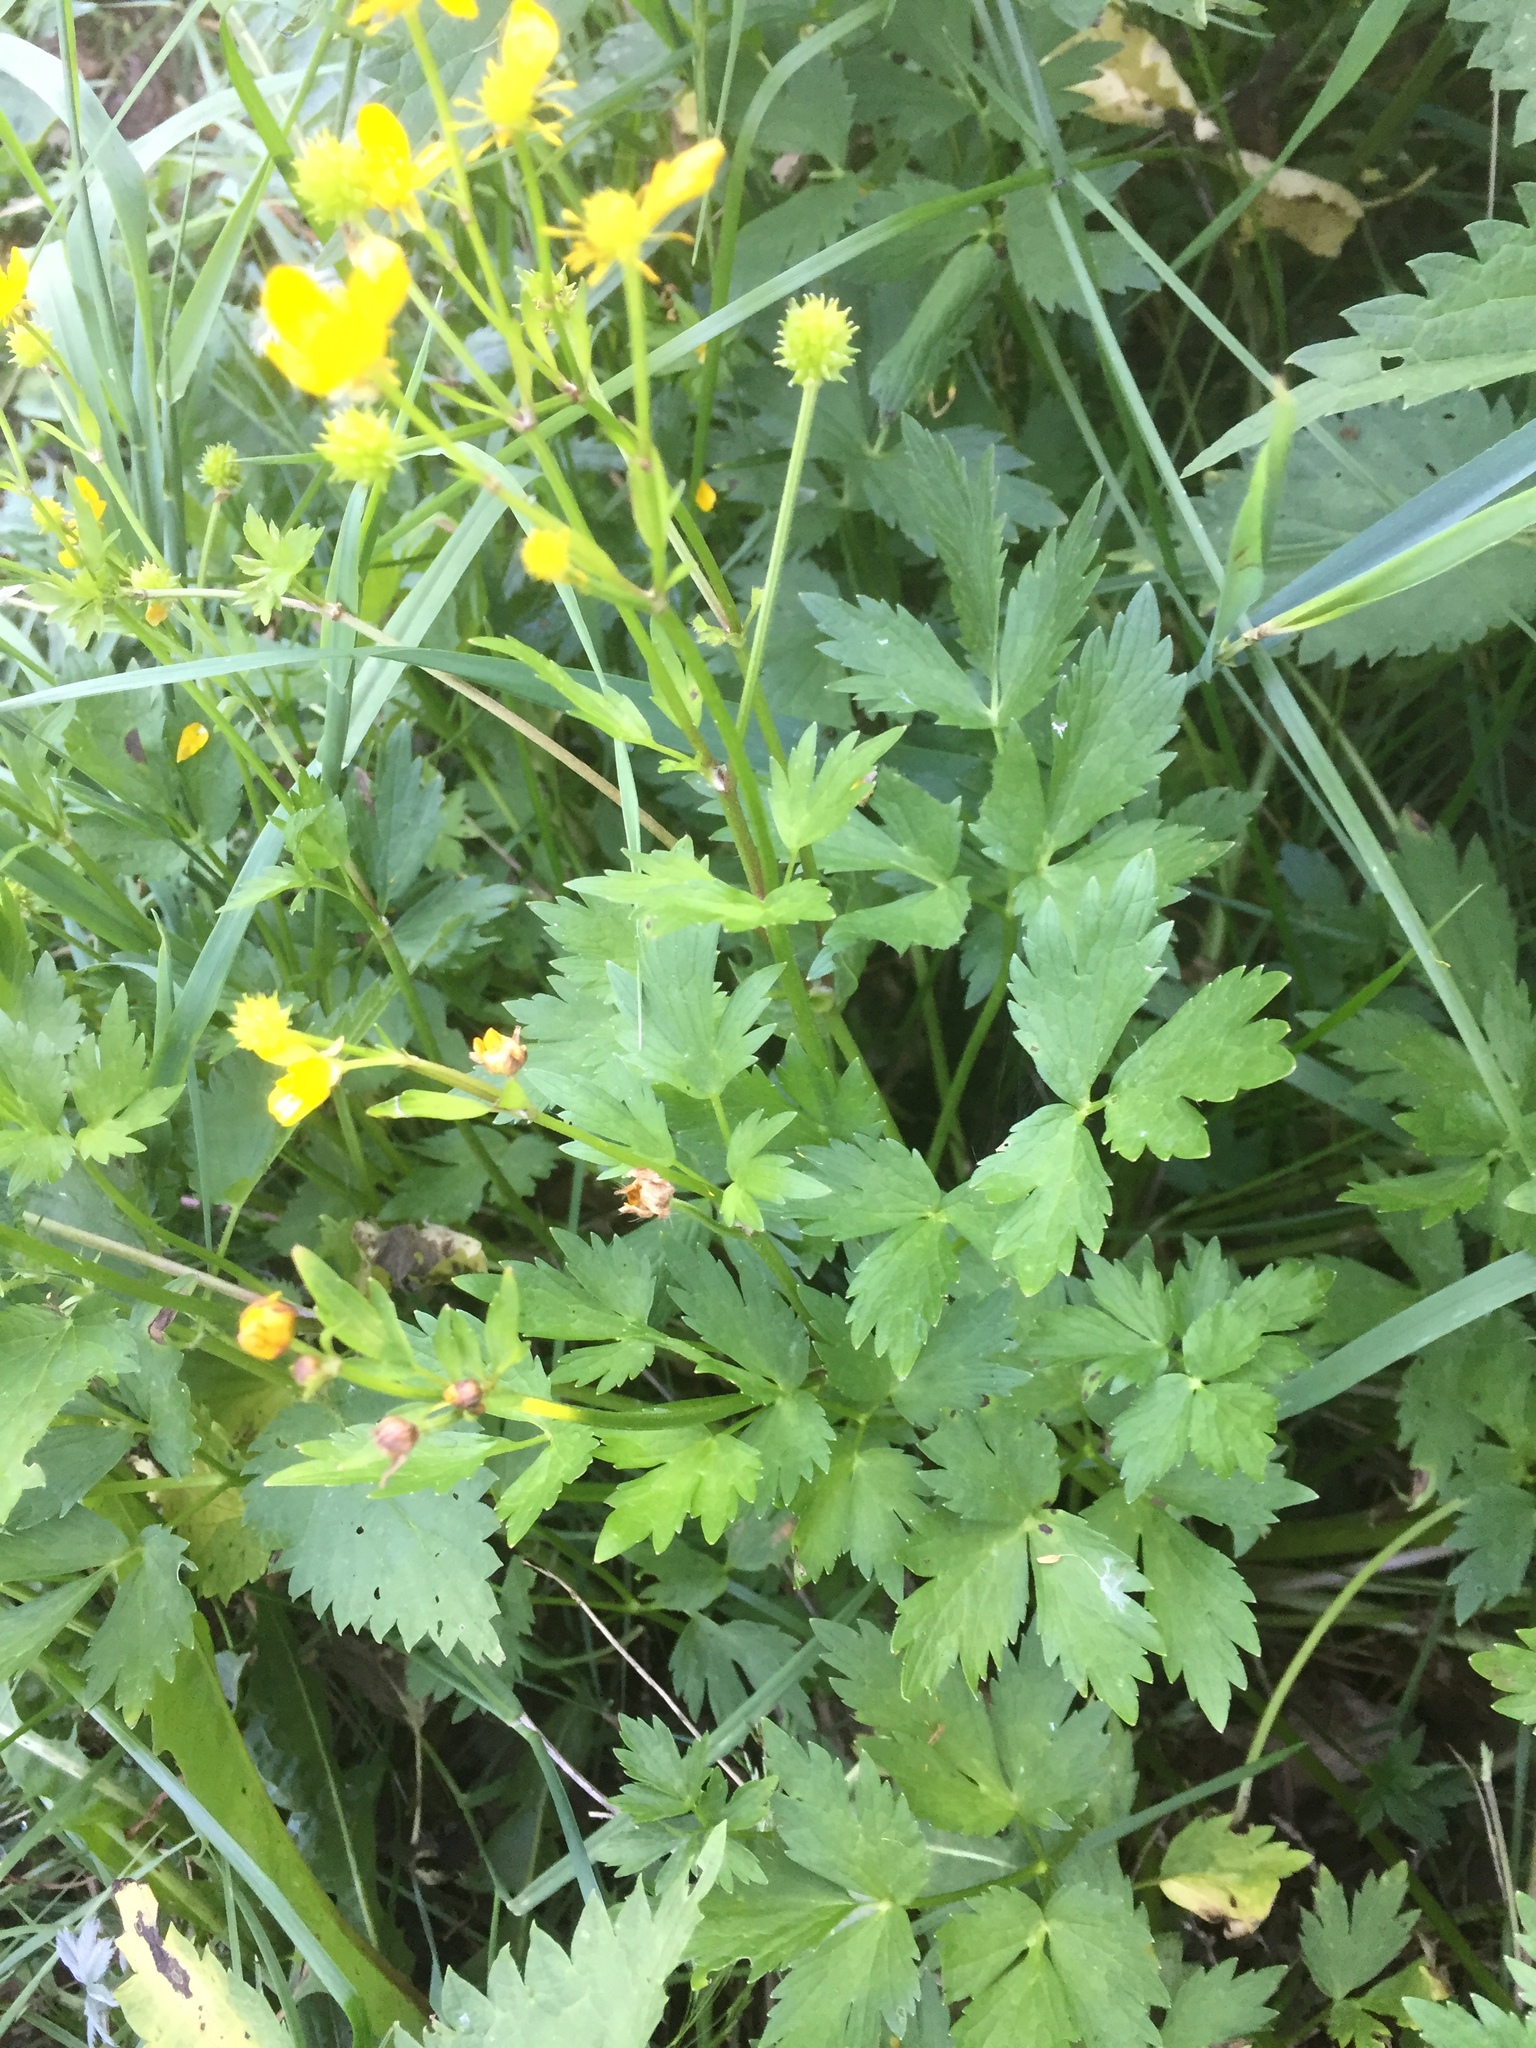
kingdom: Plantae
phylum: Tracheophyta
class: Magnoliopsida
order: Ranunculales
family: Ranunculaceae
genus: Ranunculus
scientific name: Ranunculus repens
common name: Creeping buttercup
